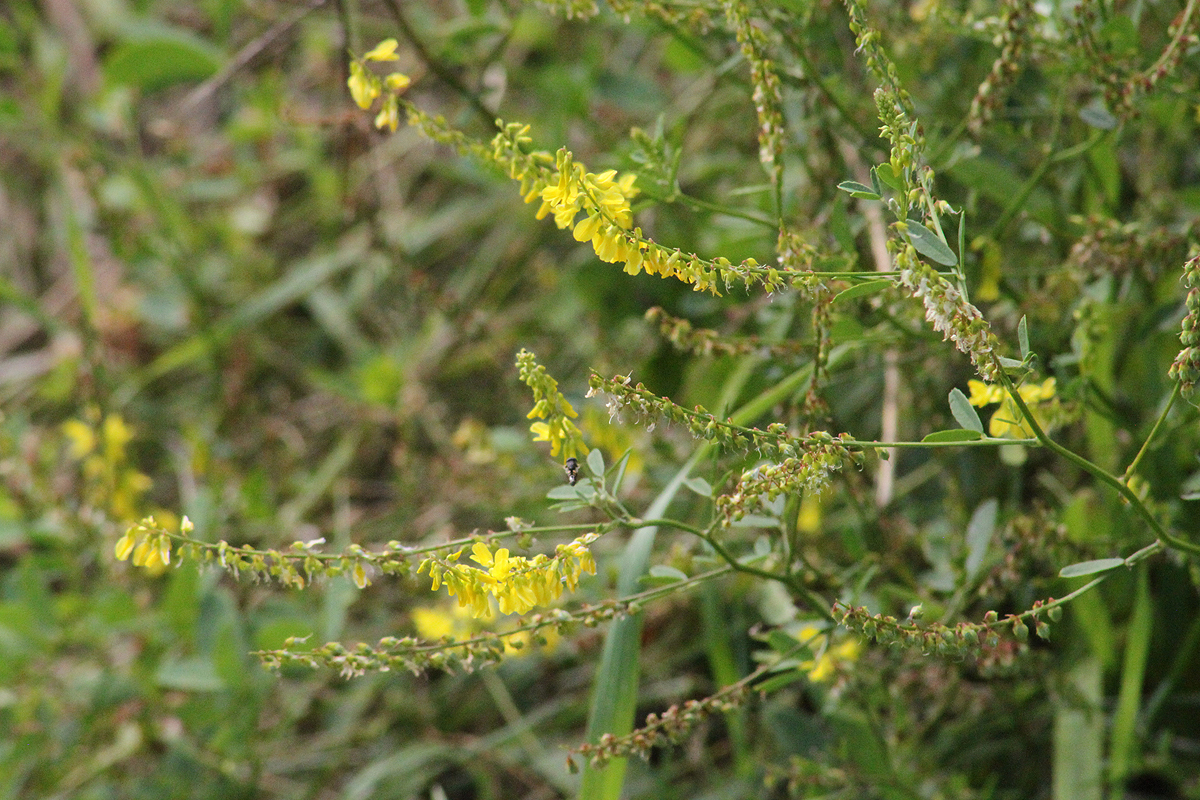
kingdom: Plantae
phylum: Tracheophyta
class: Magnoliopsida
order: Fabales
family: Fabaceae
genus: Melilotus
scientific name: Melilotus officinalis
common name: Sweetclover
